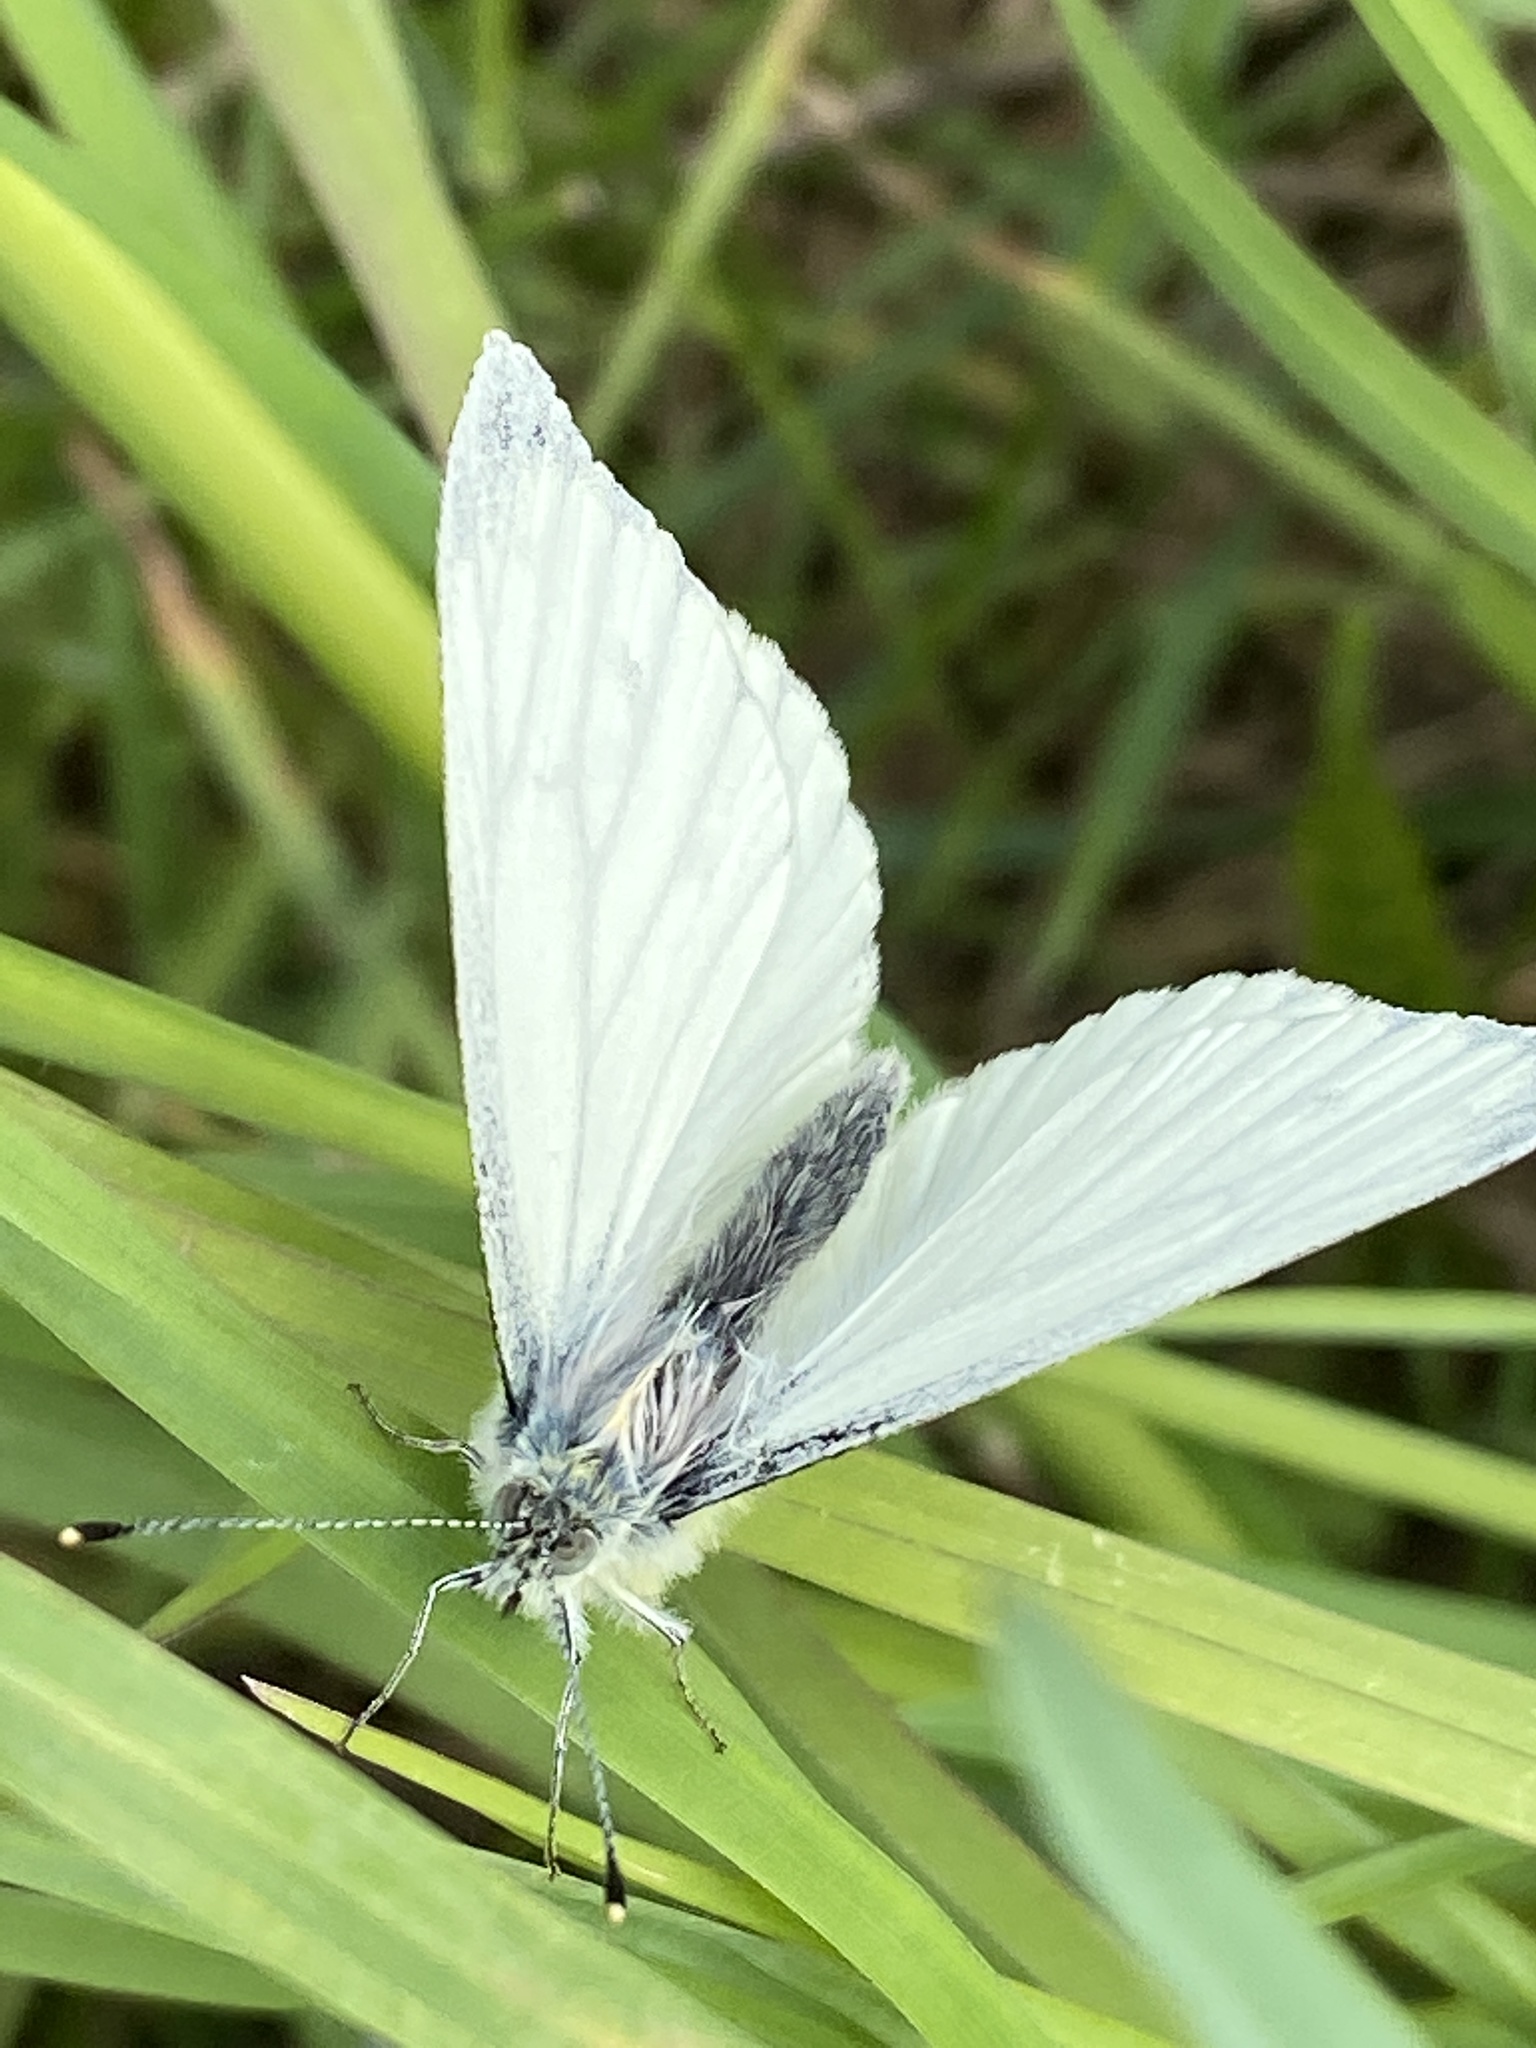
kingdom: Animalia
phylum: Arthropoda
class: Insecta
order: Lepidoptera
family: Pieridae
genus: Pieris
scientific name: Pieris napi
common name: Green-veined white
